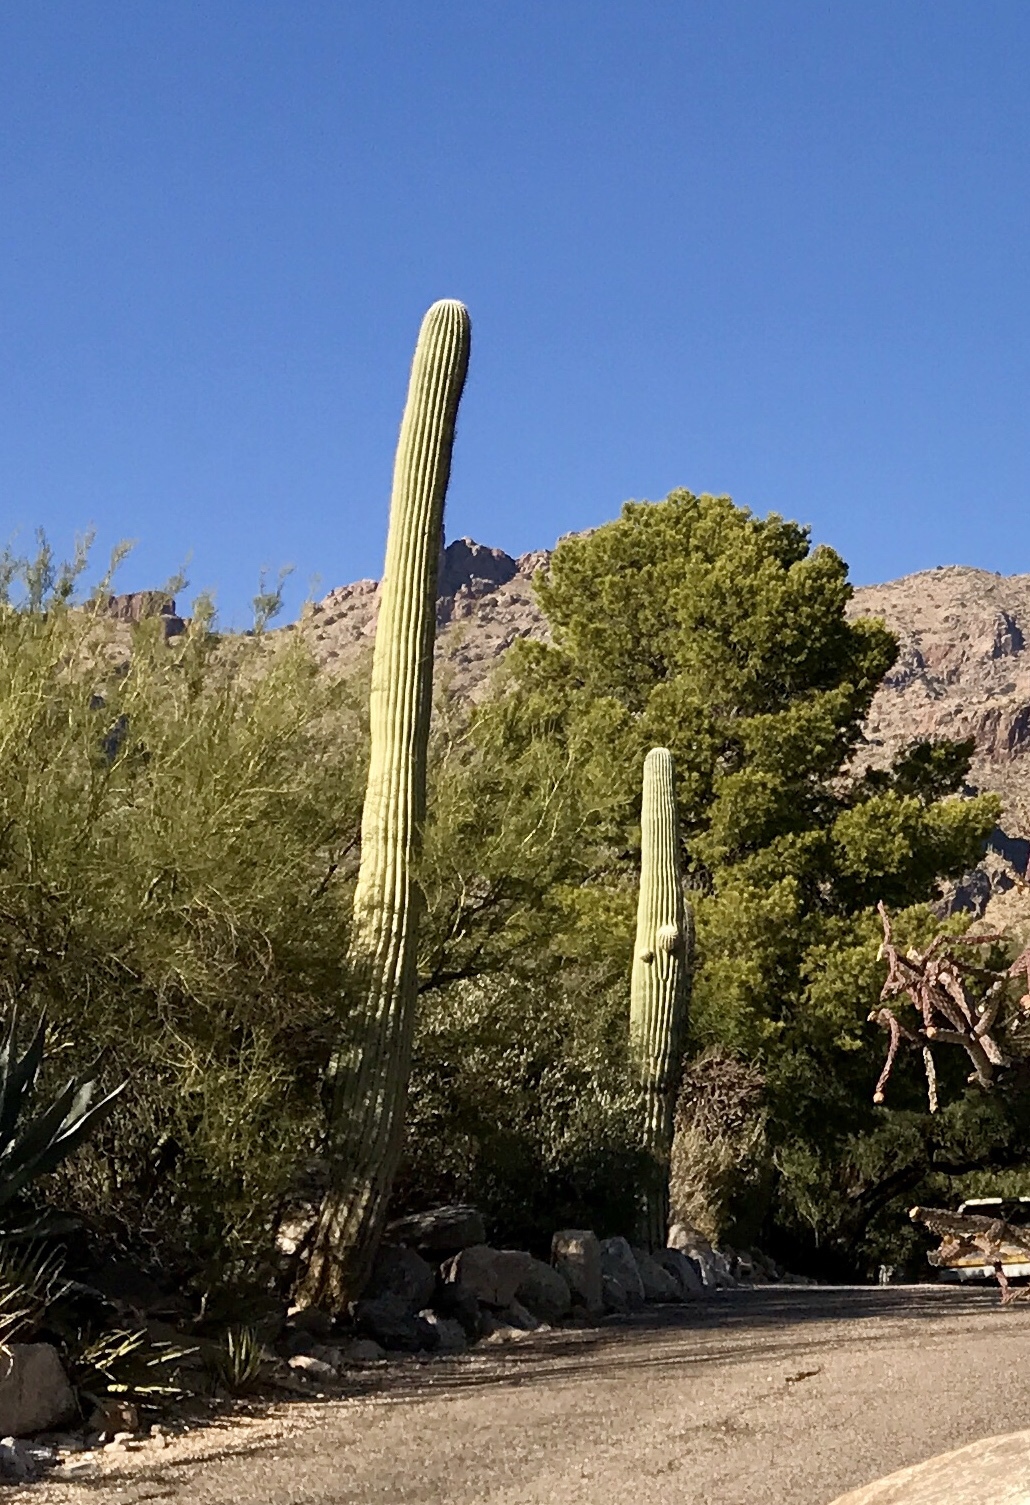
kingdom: Plantae
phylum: Tracheophyta
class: Magnoliopsida
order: Caryophyllales
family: Cactaceae
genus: Carnegiea
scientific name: Carnegiea gigantea
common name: Saguaro
